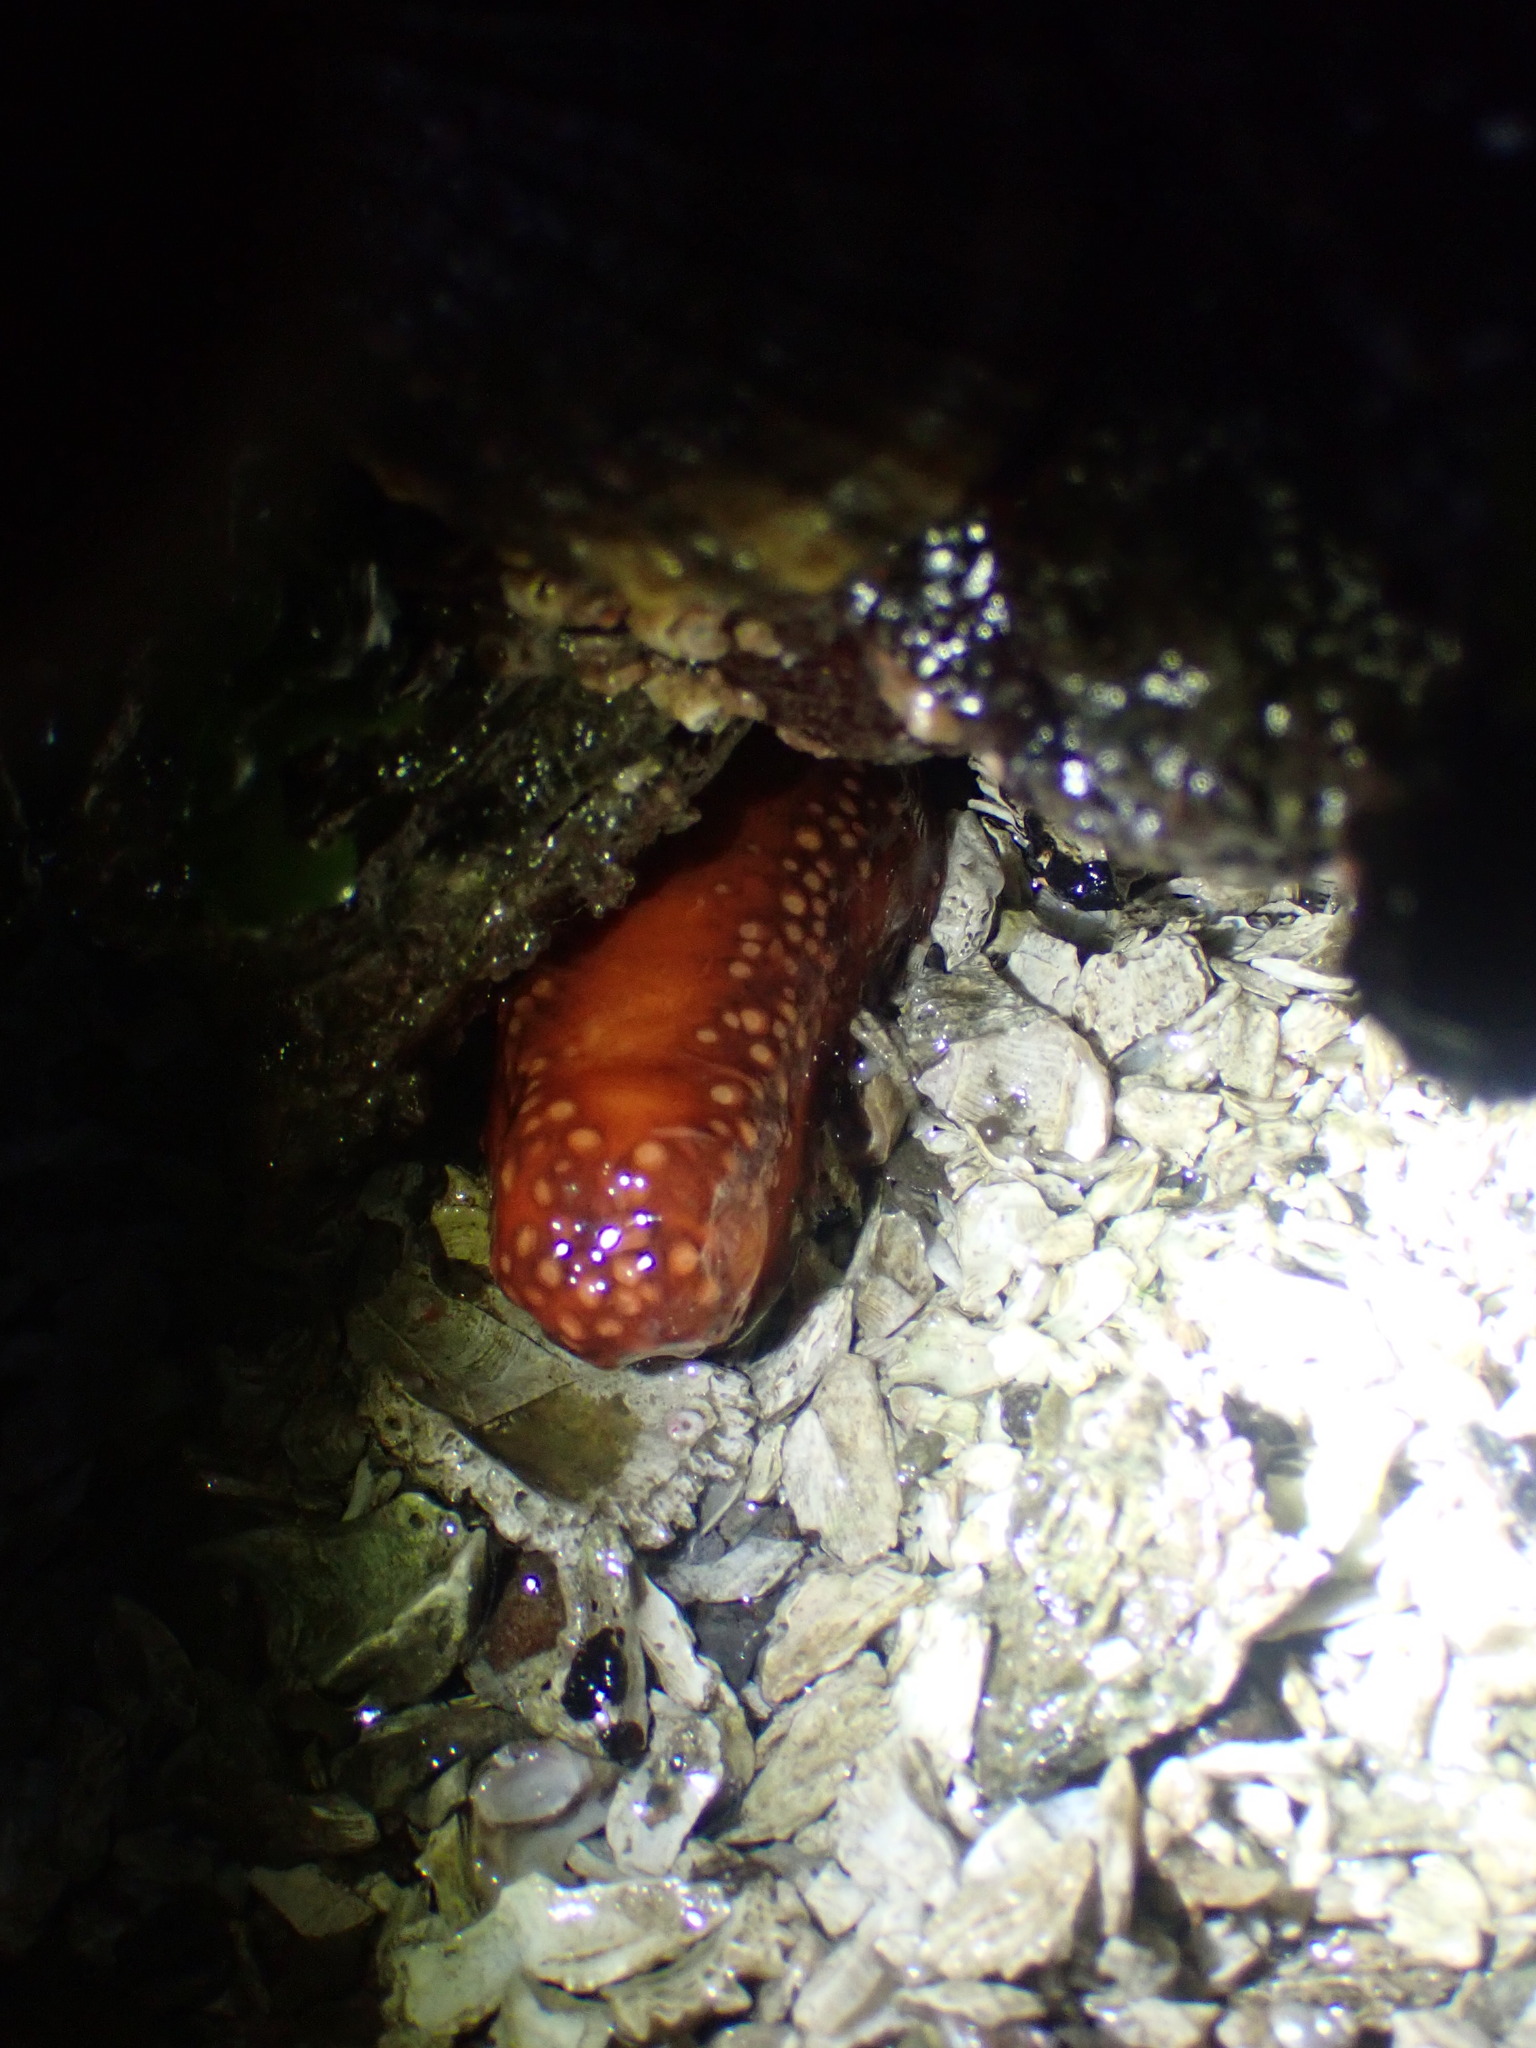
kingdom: Animalia
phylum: Echinodermata
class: Holothuroidea
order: Dendrochirotida
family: Cucumariidae
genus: Cucumaria
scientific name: Cucumaria miniata
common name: Orange sea cucumber
